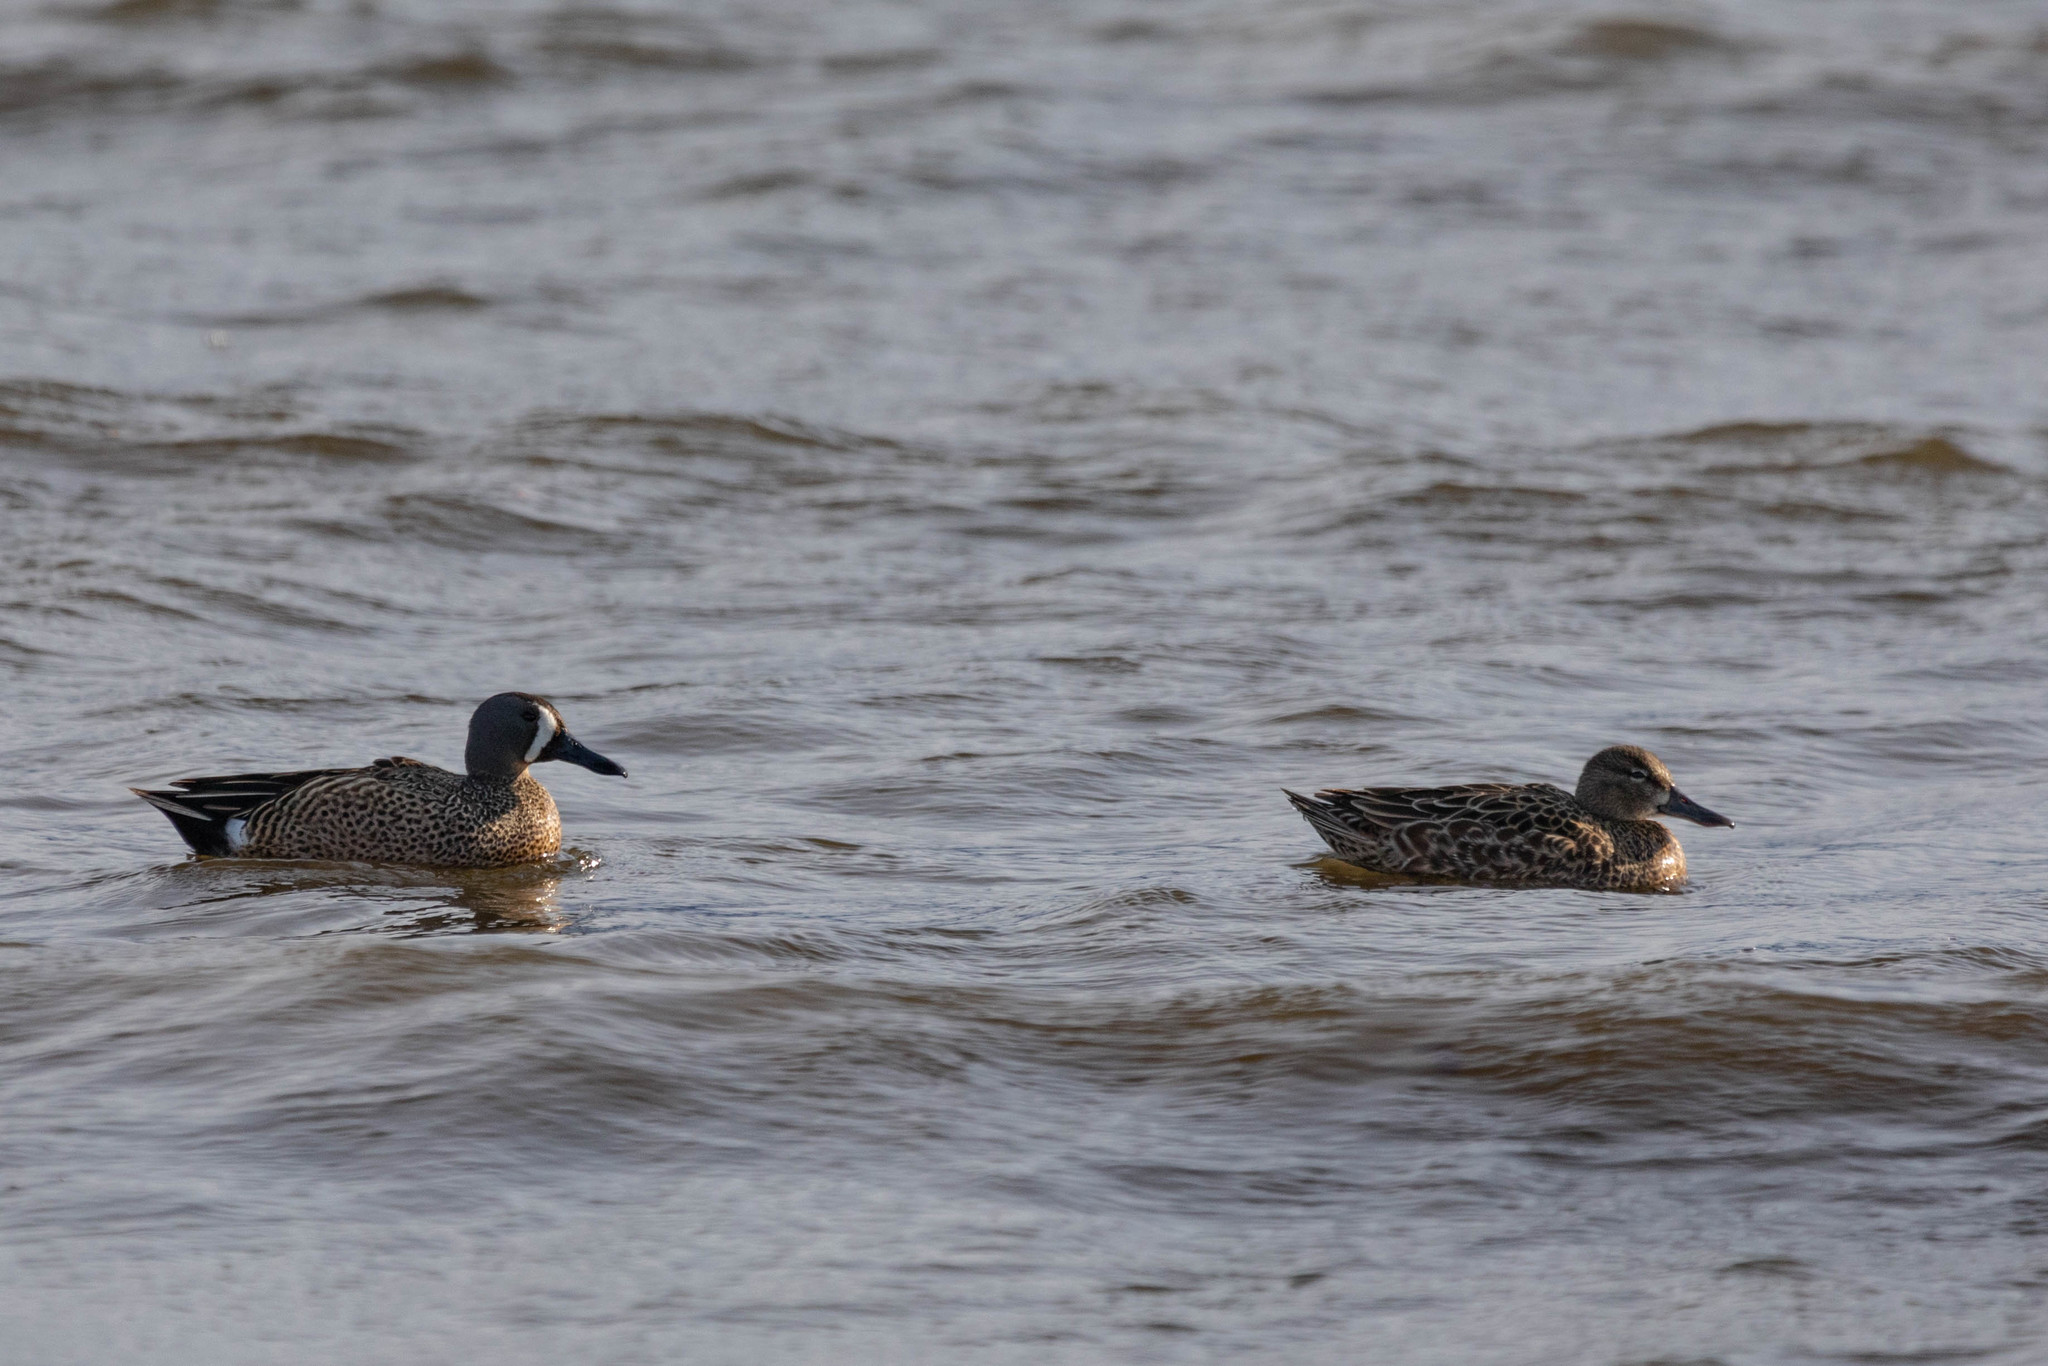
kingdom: Animalia
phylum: Chordata
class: Aves
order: Anseriformes
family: Anatidae
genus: Spatula
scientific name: Spatula discors
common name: Blue-winged teal
